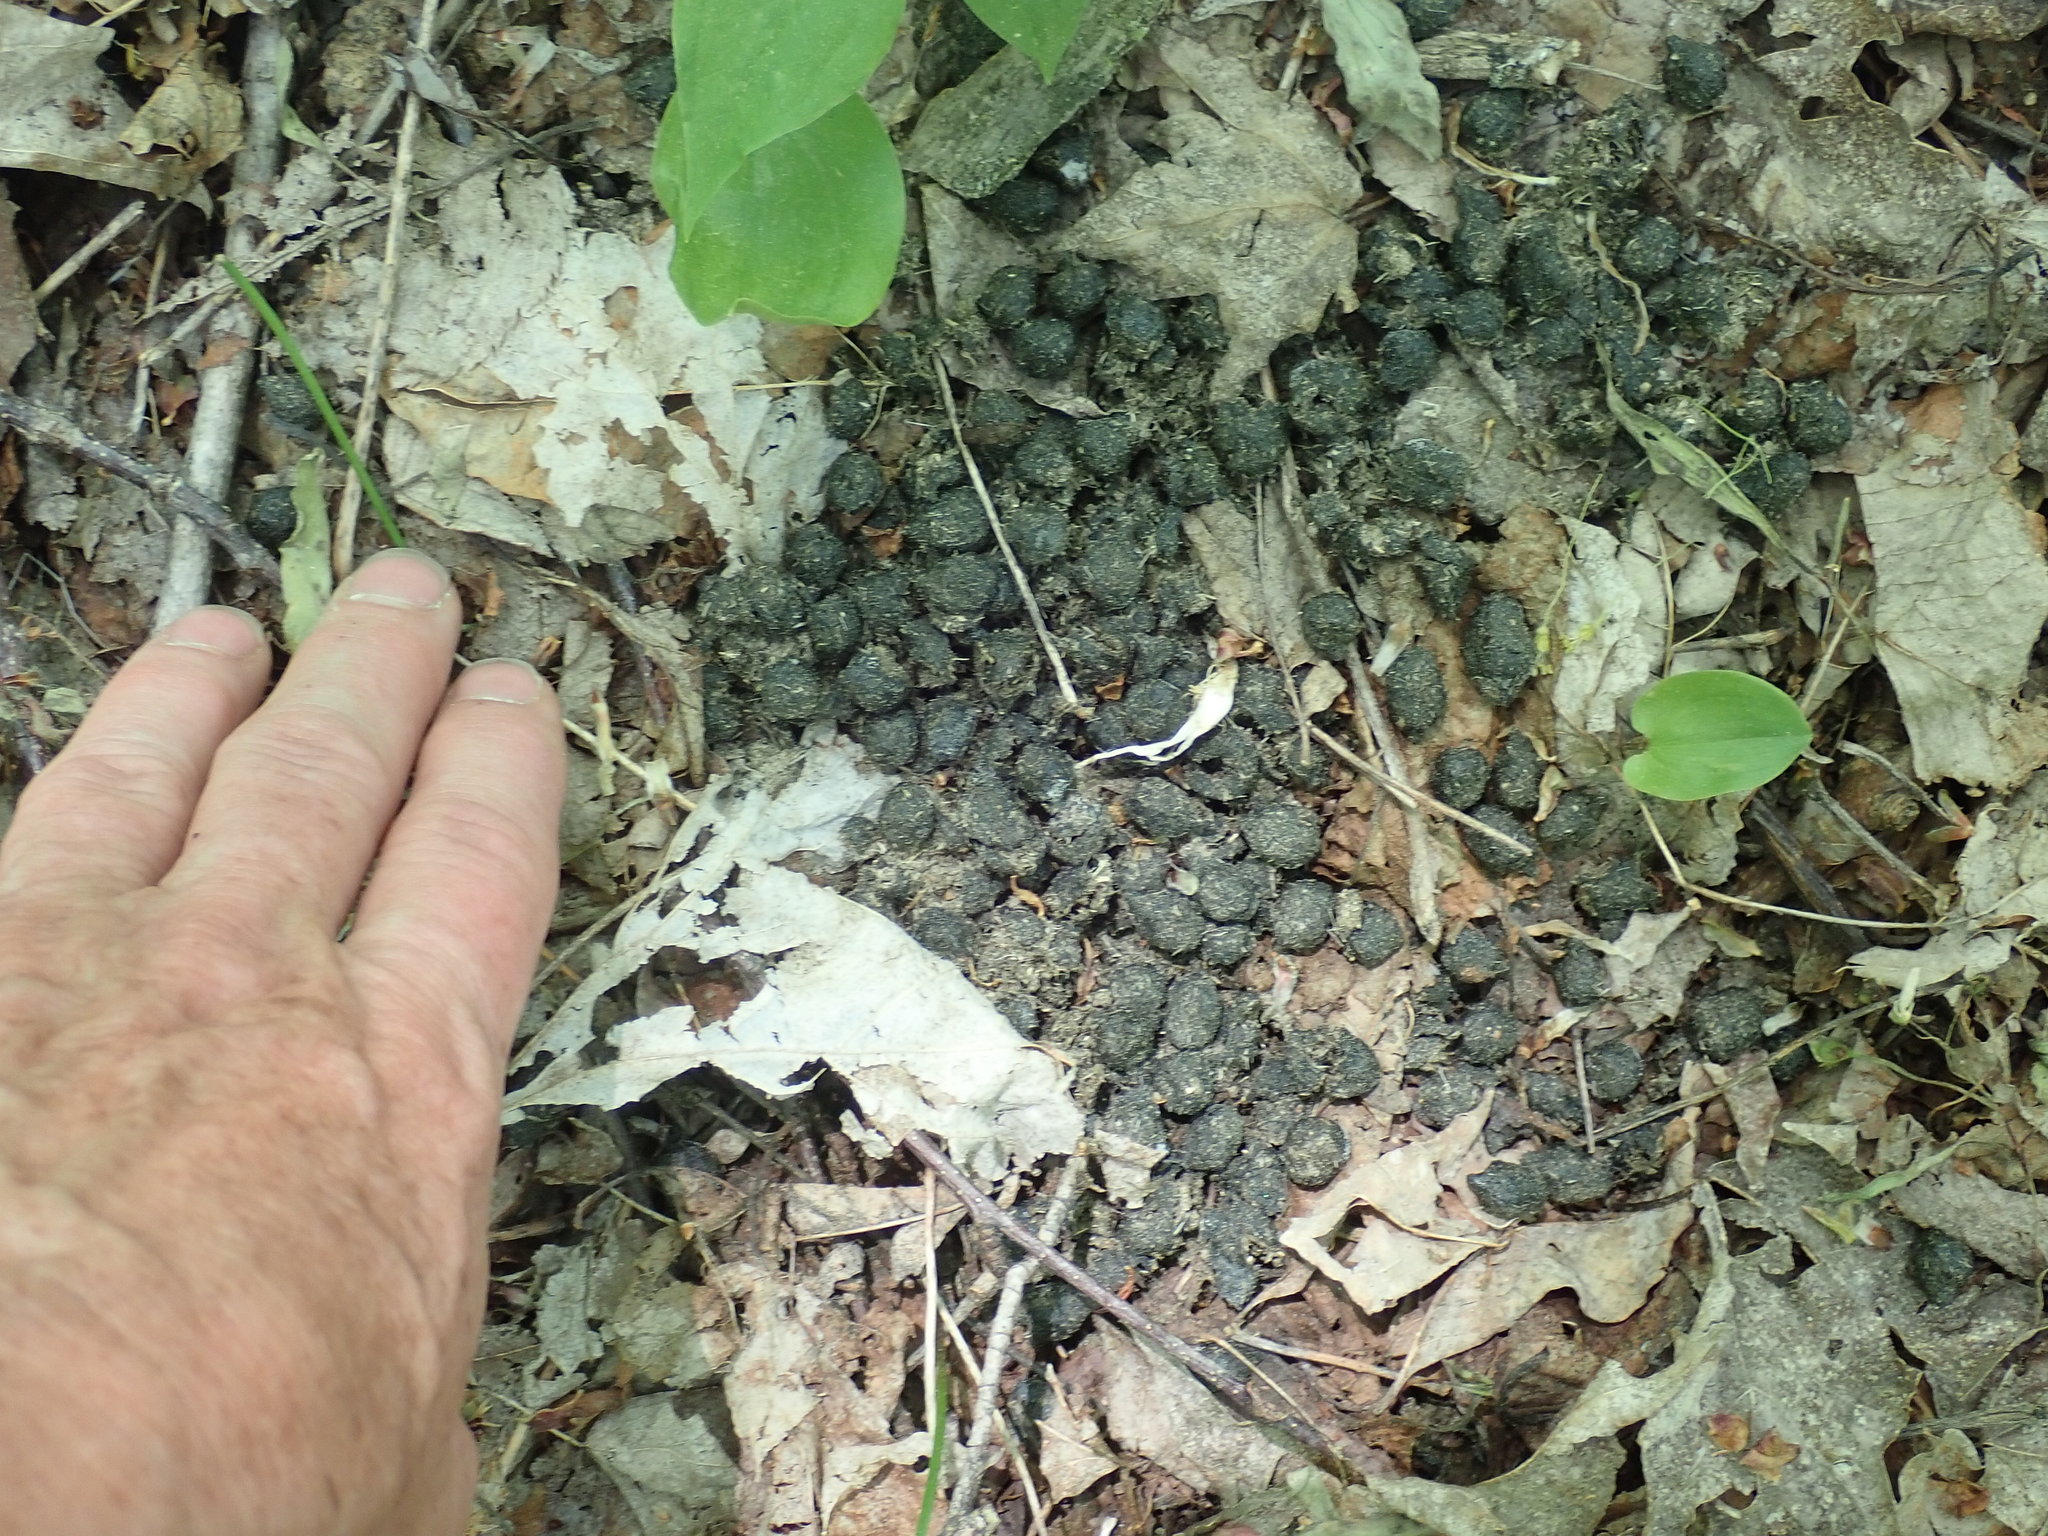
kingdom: Animalia
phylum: Chordata
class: Mammalia
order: Artiodactyla
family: Cervidae
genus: Odocoileus
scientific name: Odocoileus virginianus
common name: White-tailed deer
